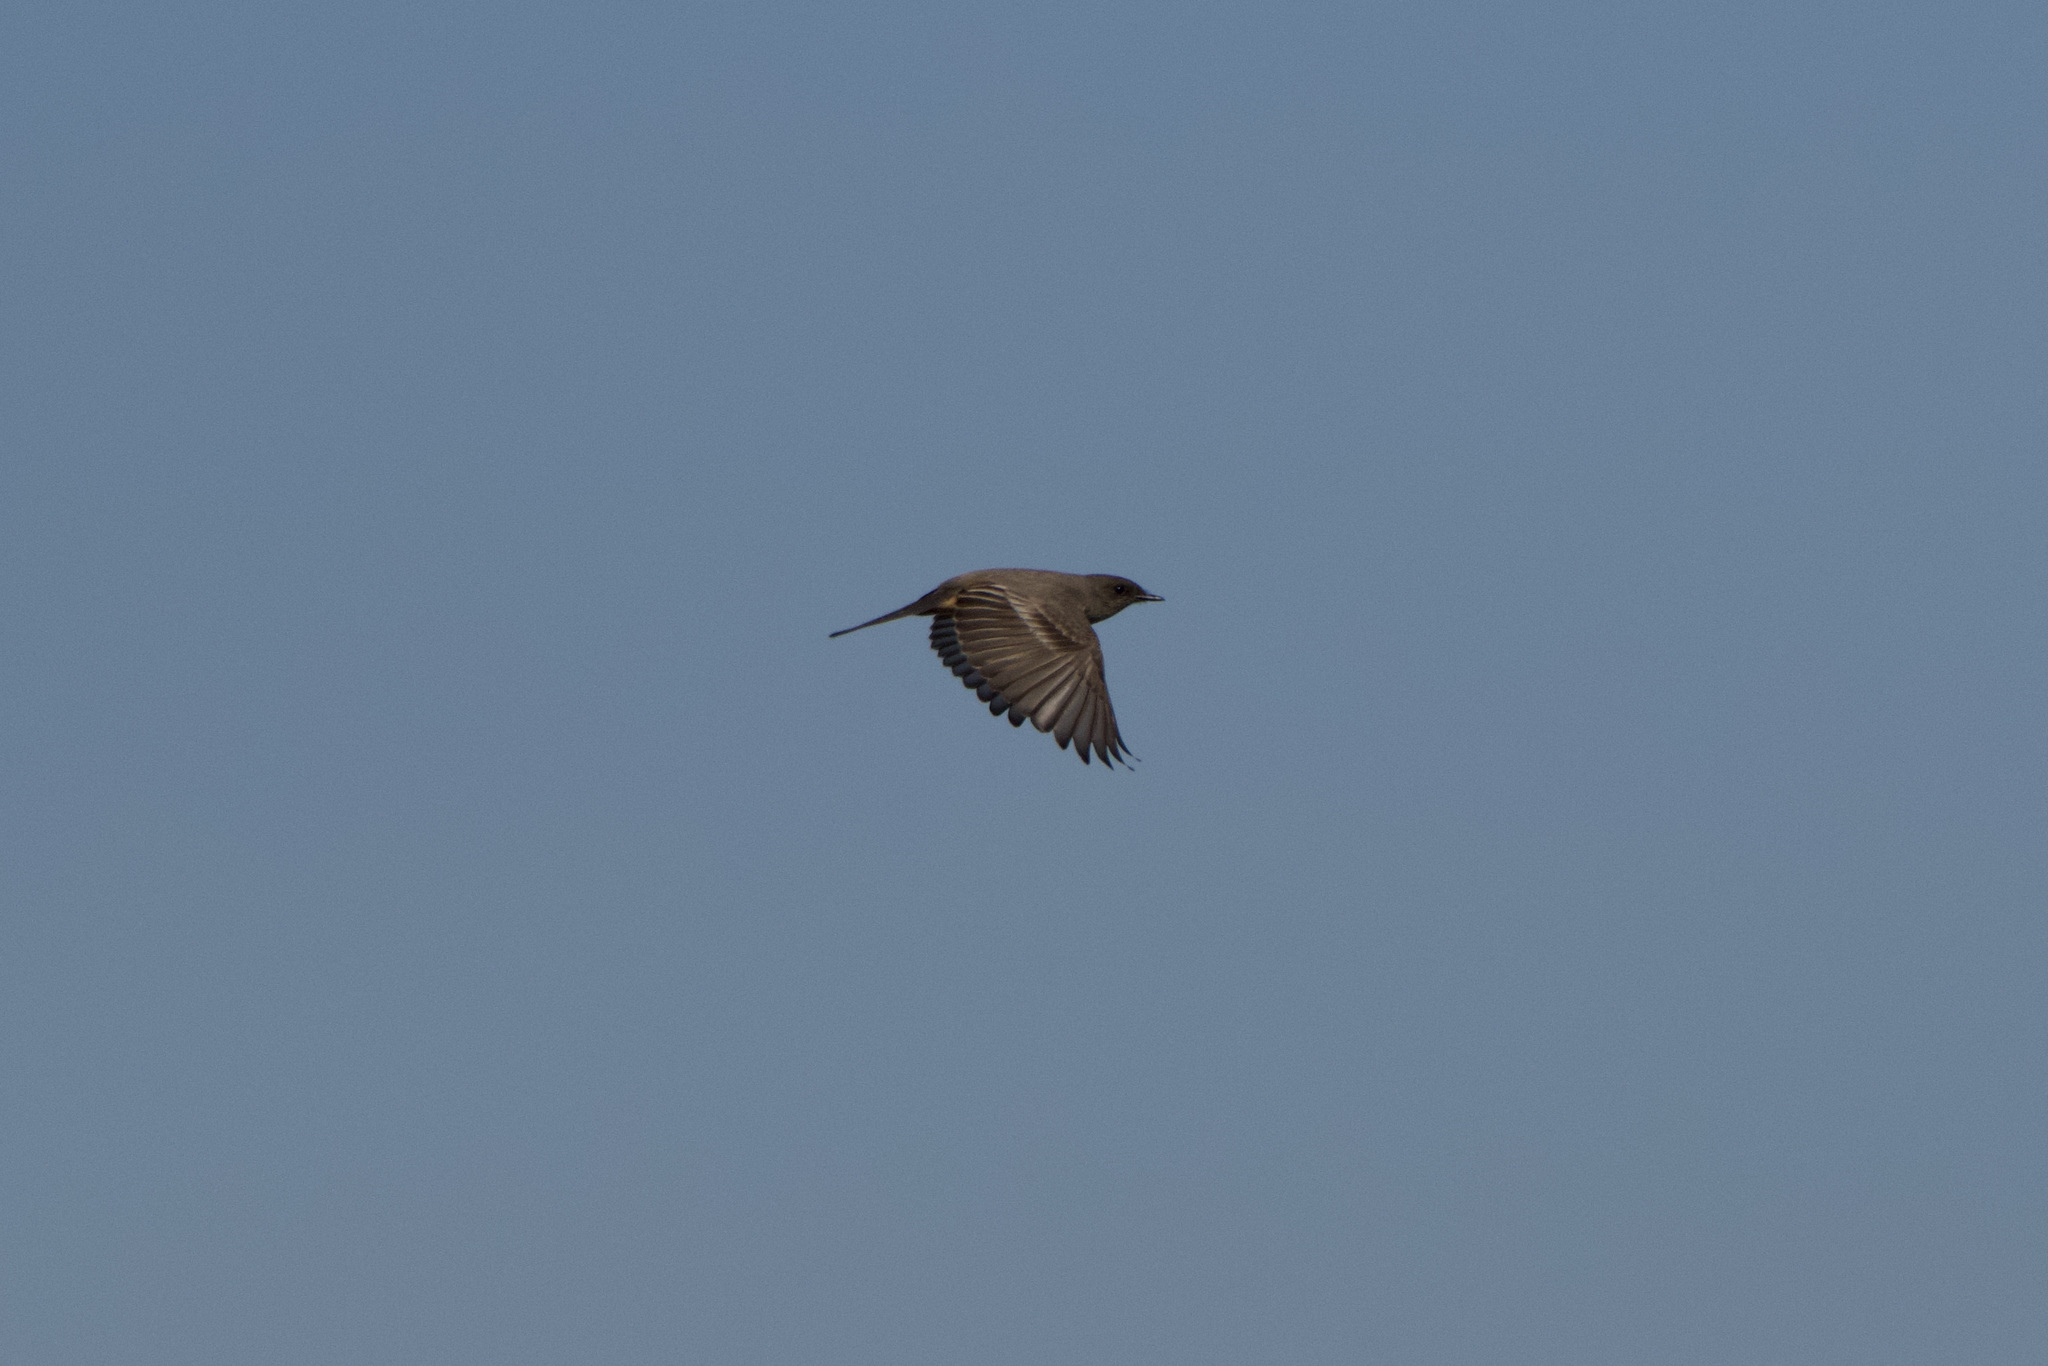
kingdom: Animalia
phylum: Chordata
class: Aves
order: Passeriformes
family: Tyrannidae
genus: Sayornis
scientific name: Sayornis saya
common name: Say's phoebe
